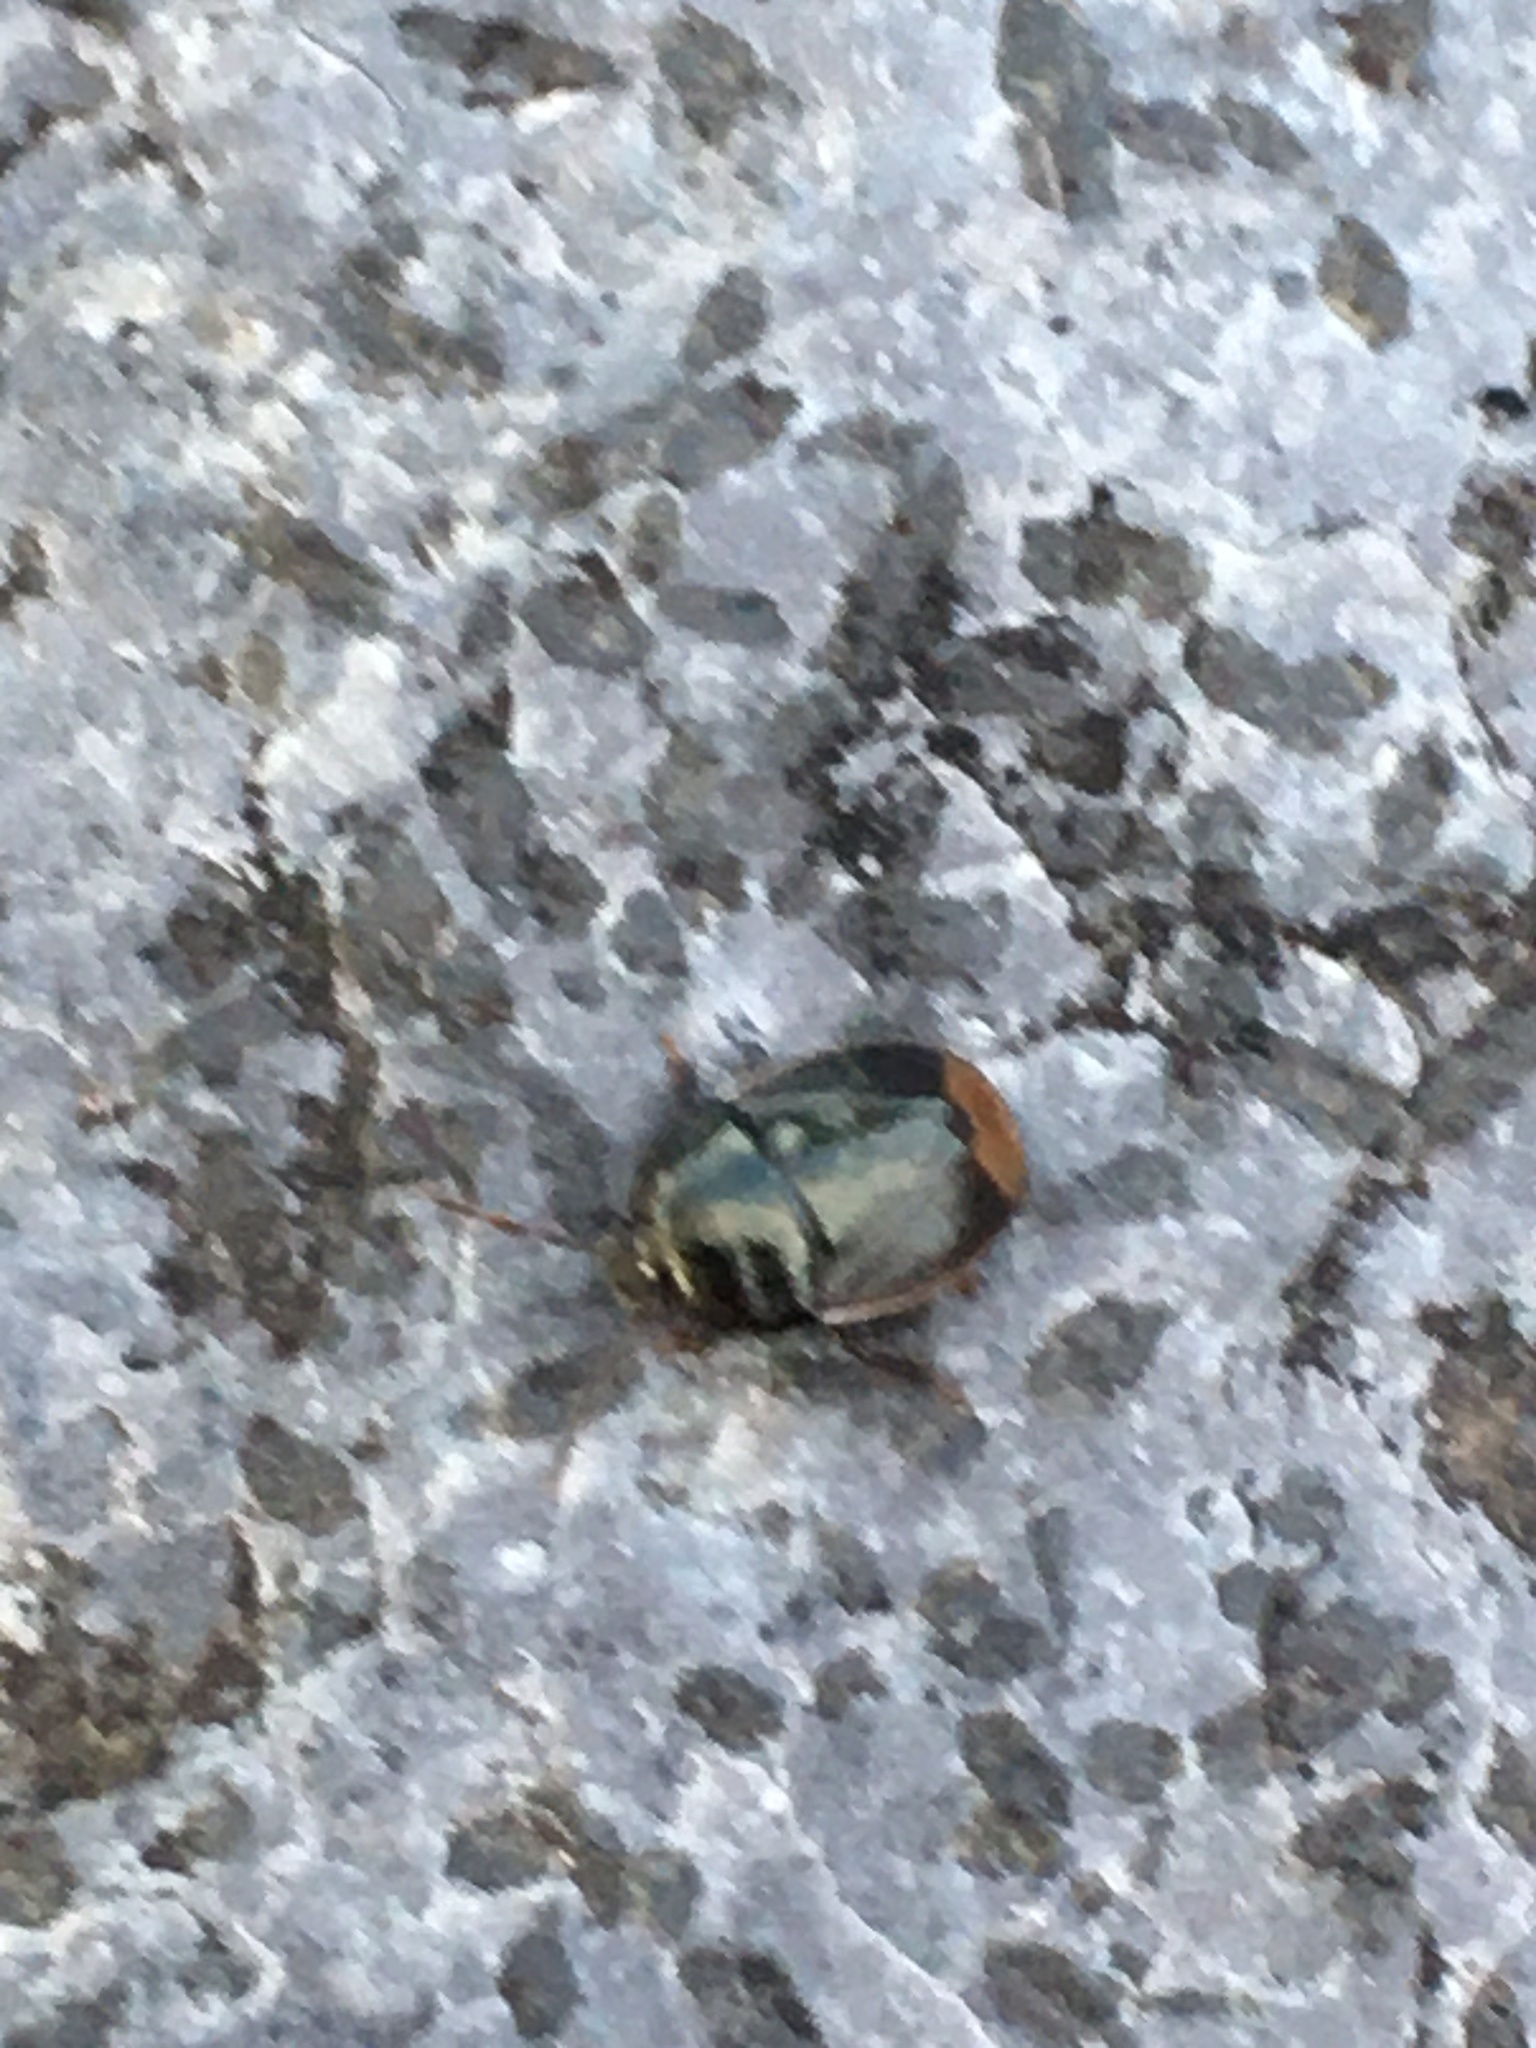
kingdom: Animalia
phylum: Arthropoda
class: Insecta
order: Hemiptera
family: Cydnidae
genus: Legnotus
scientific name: Legnotus limbosus
